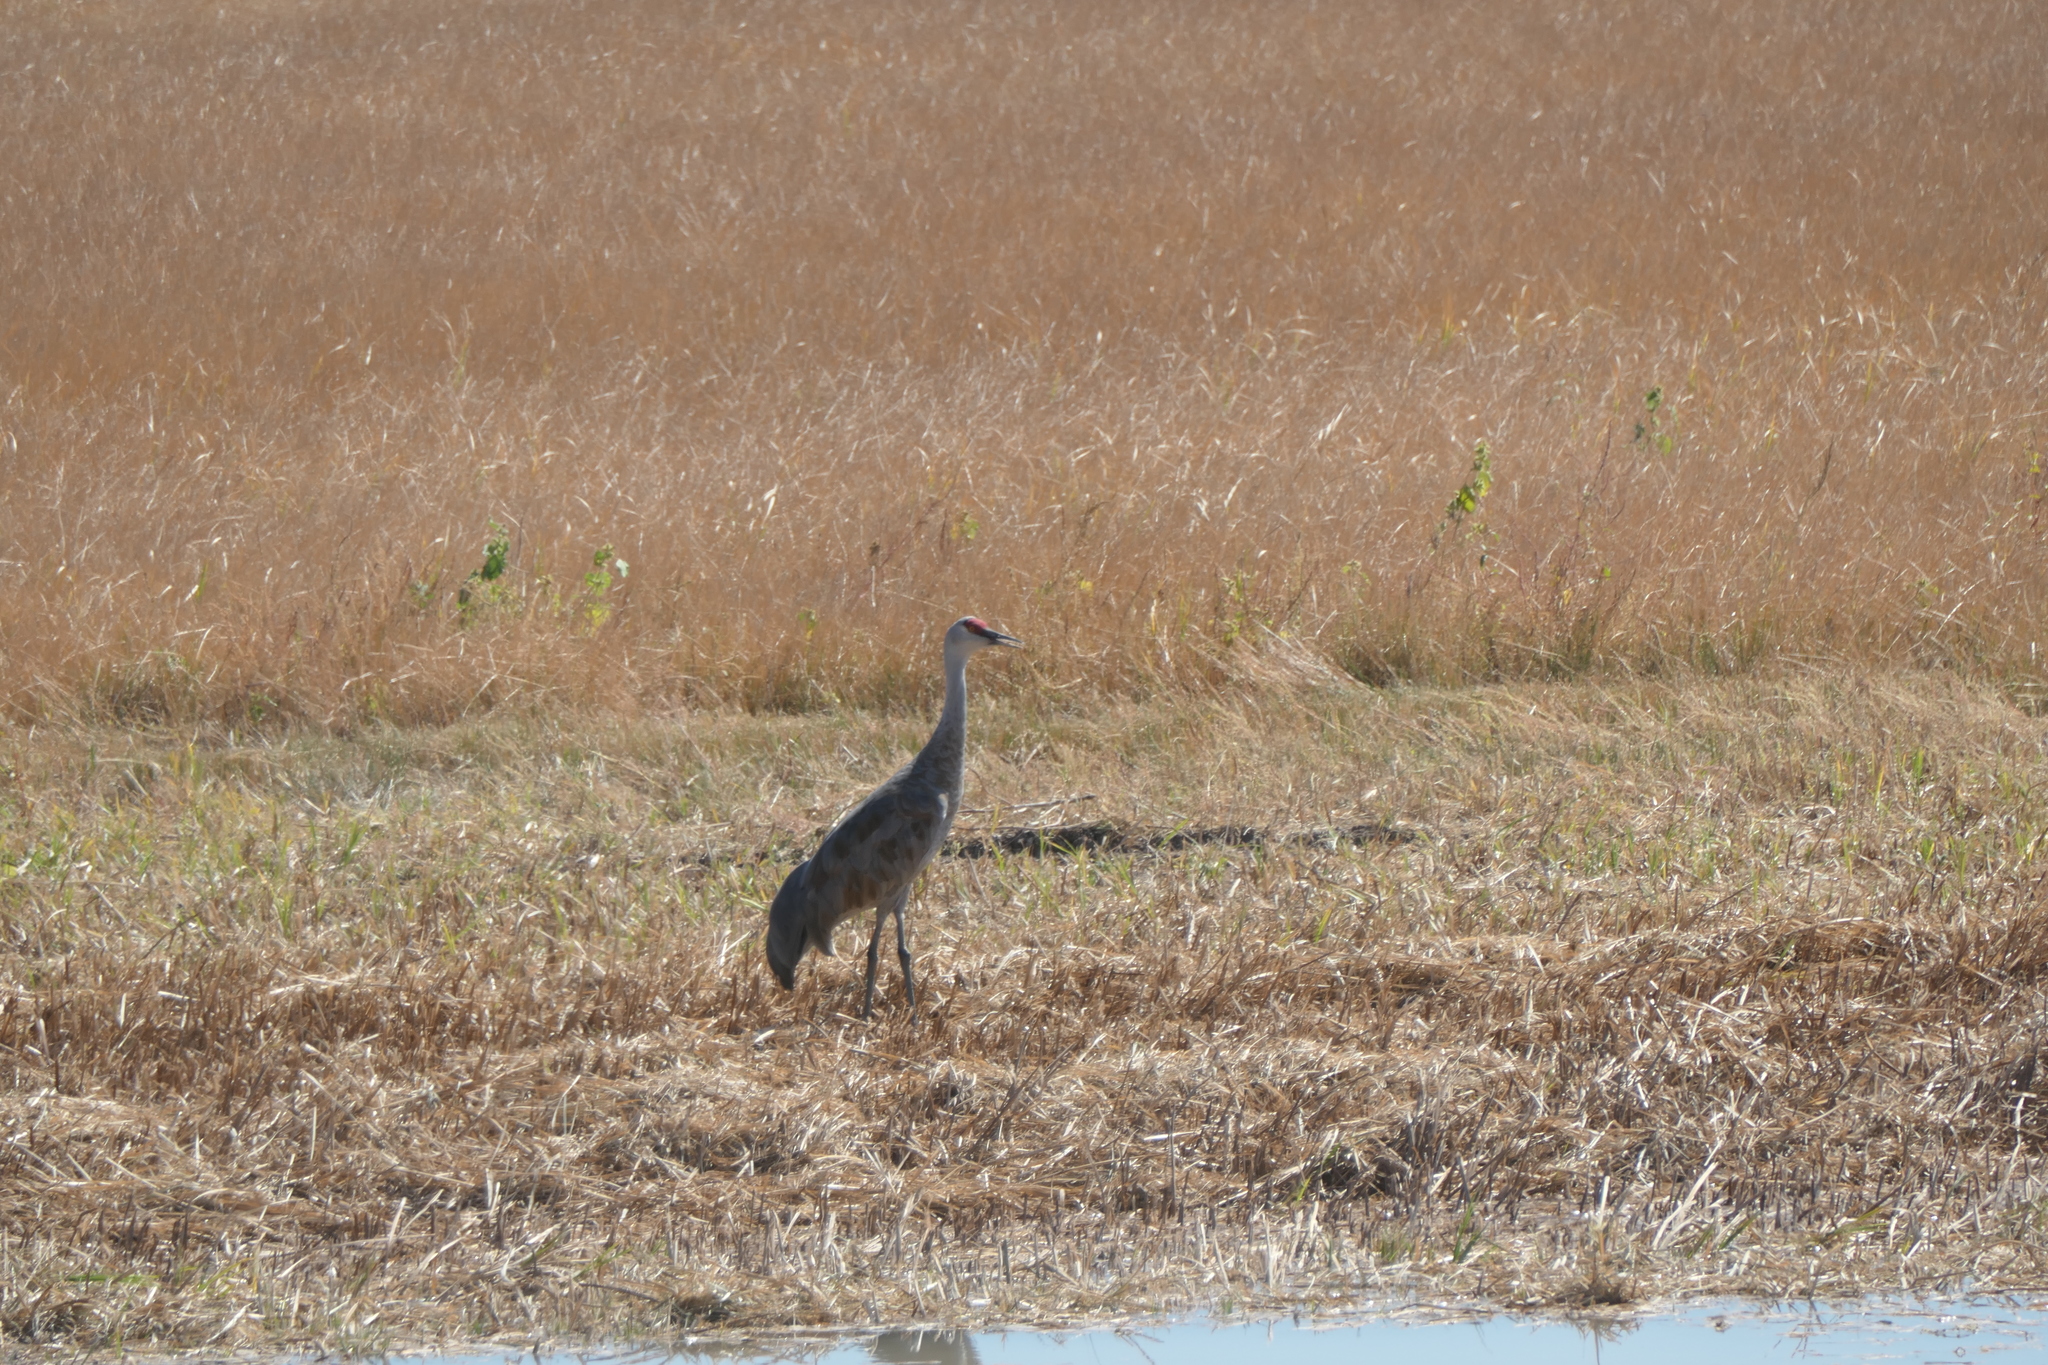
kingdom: Animalia
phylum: Chordata
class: Aves
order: Gruiformes
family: Gruidae
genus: Grus
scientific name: Grus canadensis
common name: Sandhill crane
